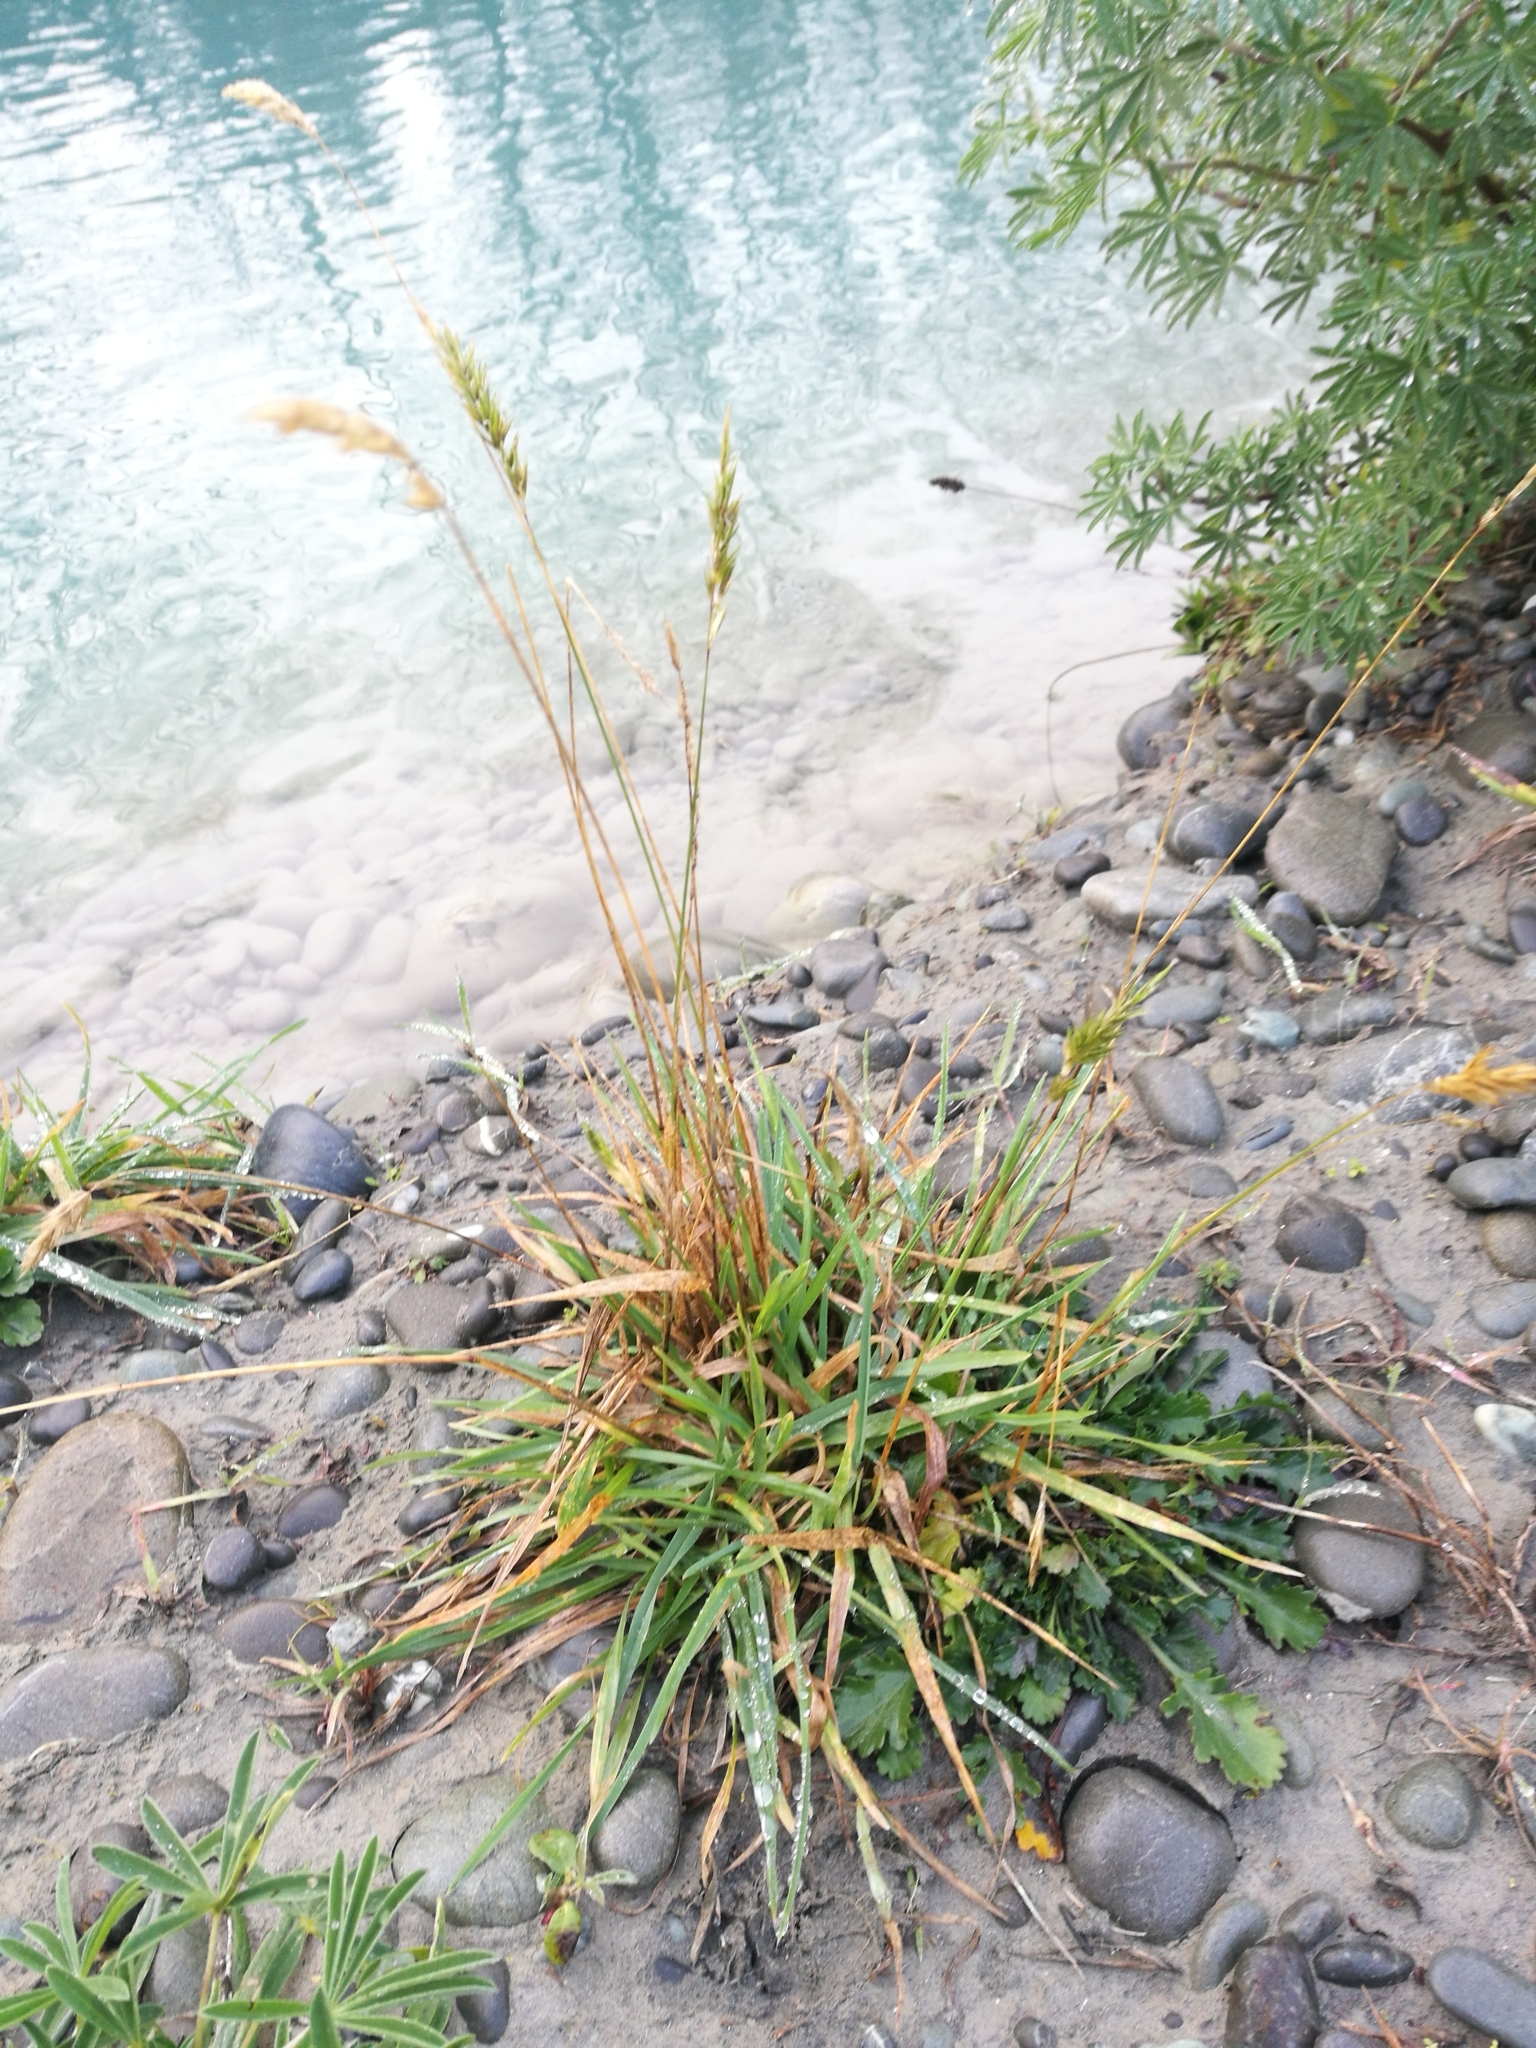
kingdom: Plantae
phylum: Tracheophyta
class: Liliopsida
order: Poales
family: Poaceae
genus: Anthoxanthum
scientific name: Anthoxanthum odoratum
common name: Sweet vernalgrass
